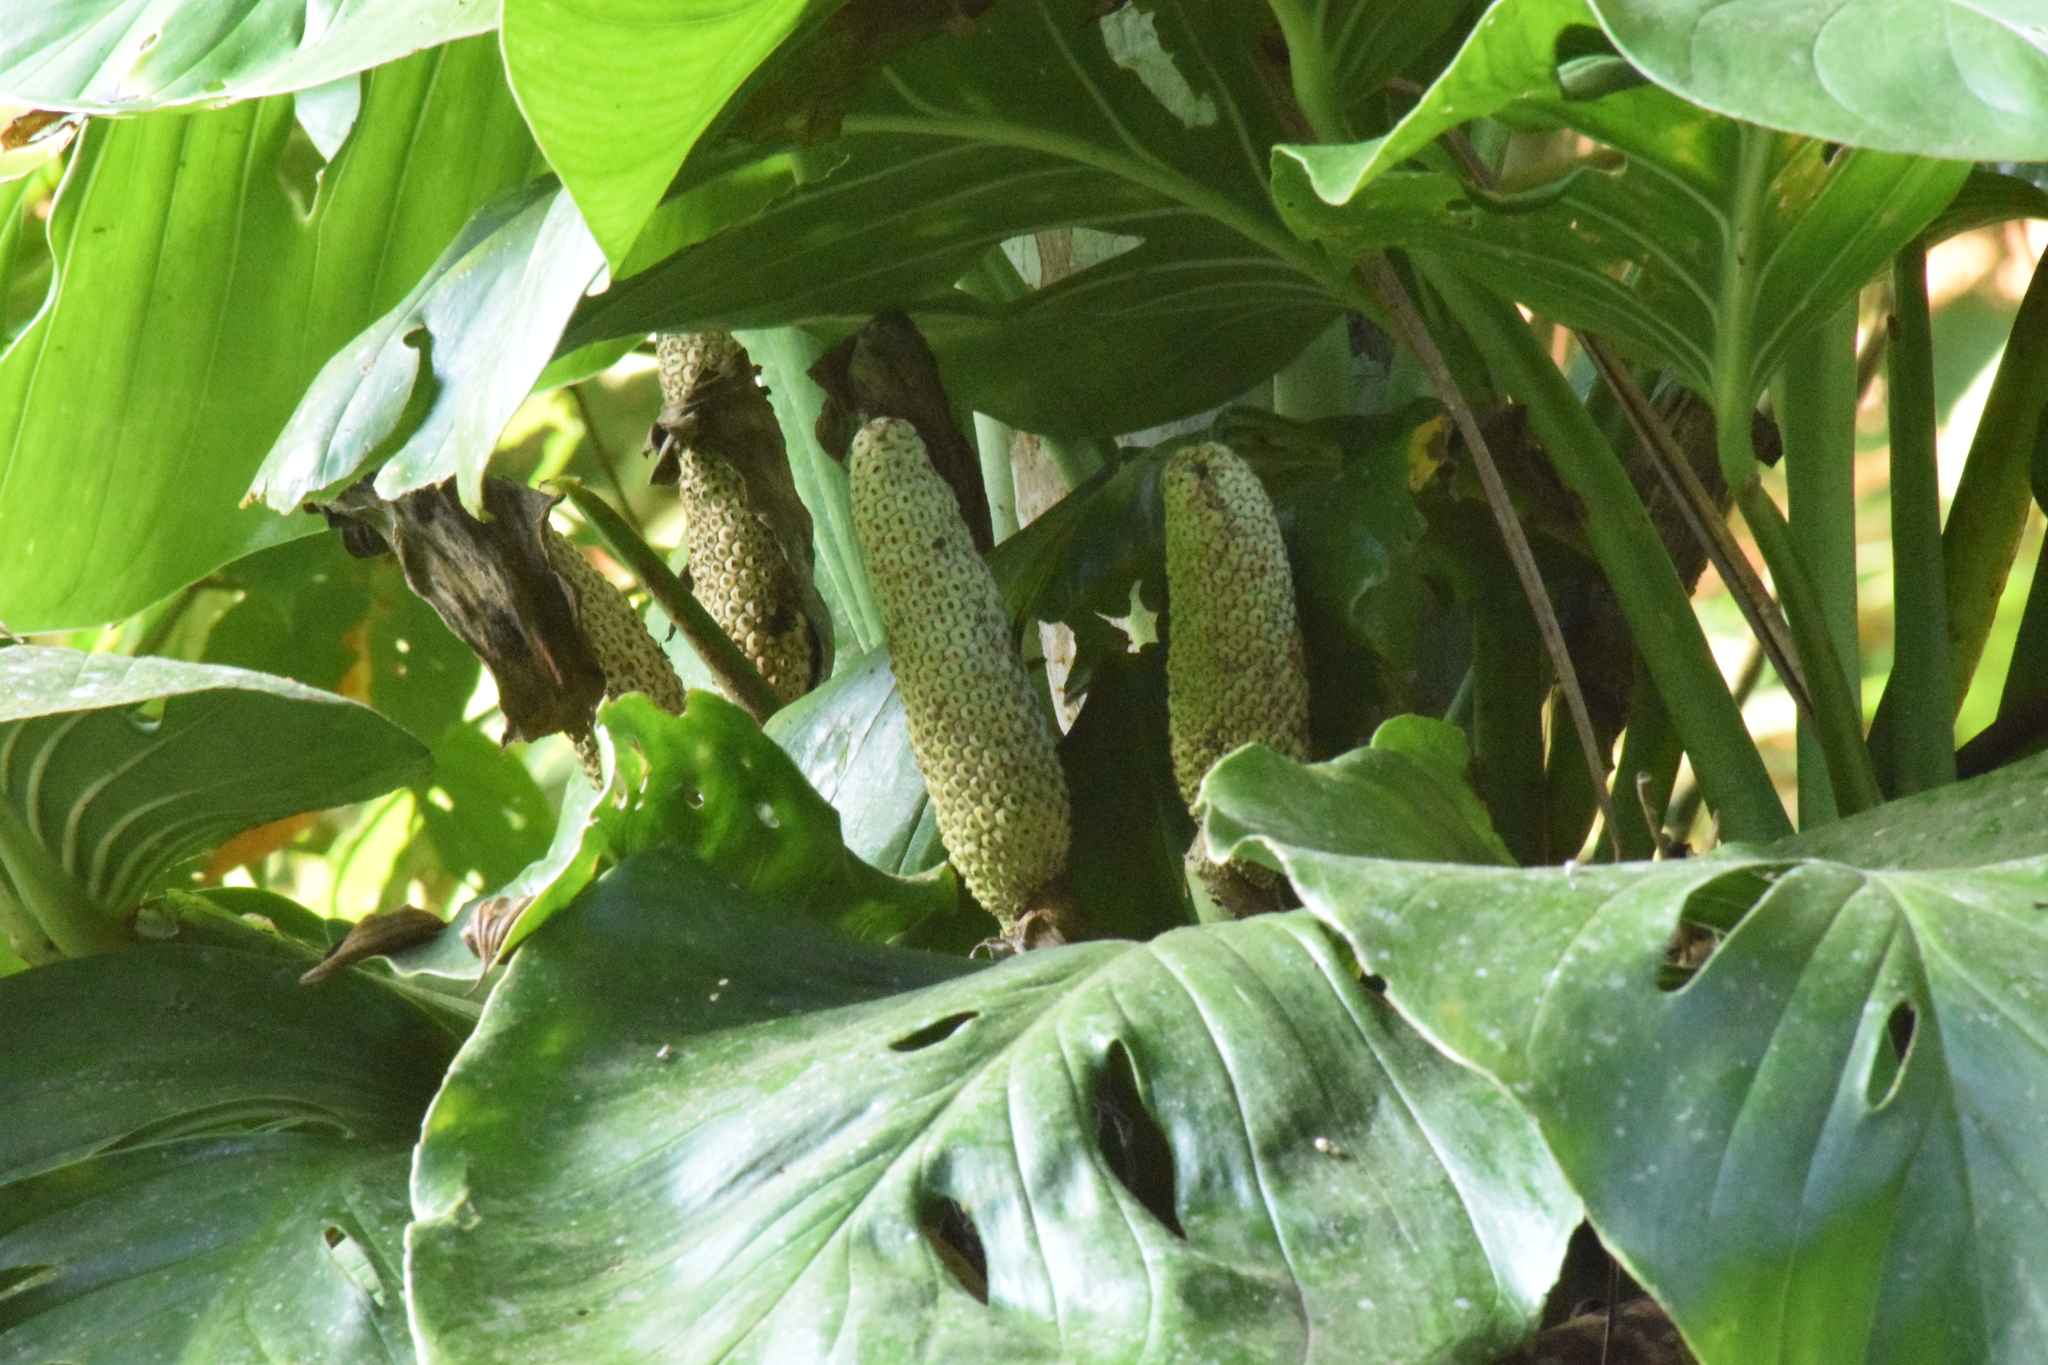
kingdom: Plantae
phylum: Tracheophyta
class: Liliopsida
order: Alismatales
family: Araceae
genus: Monstera
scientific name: Monstera adansonii
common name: Tarovine
